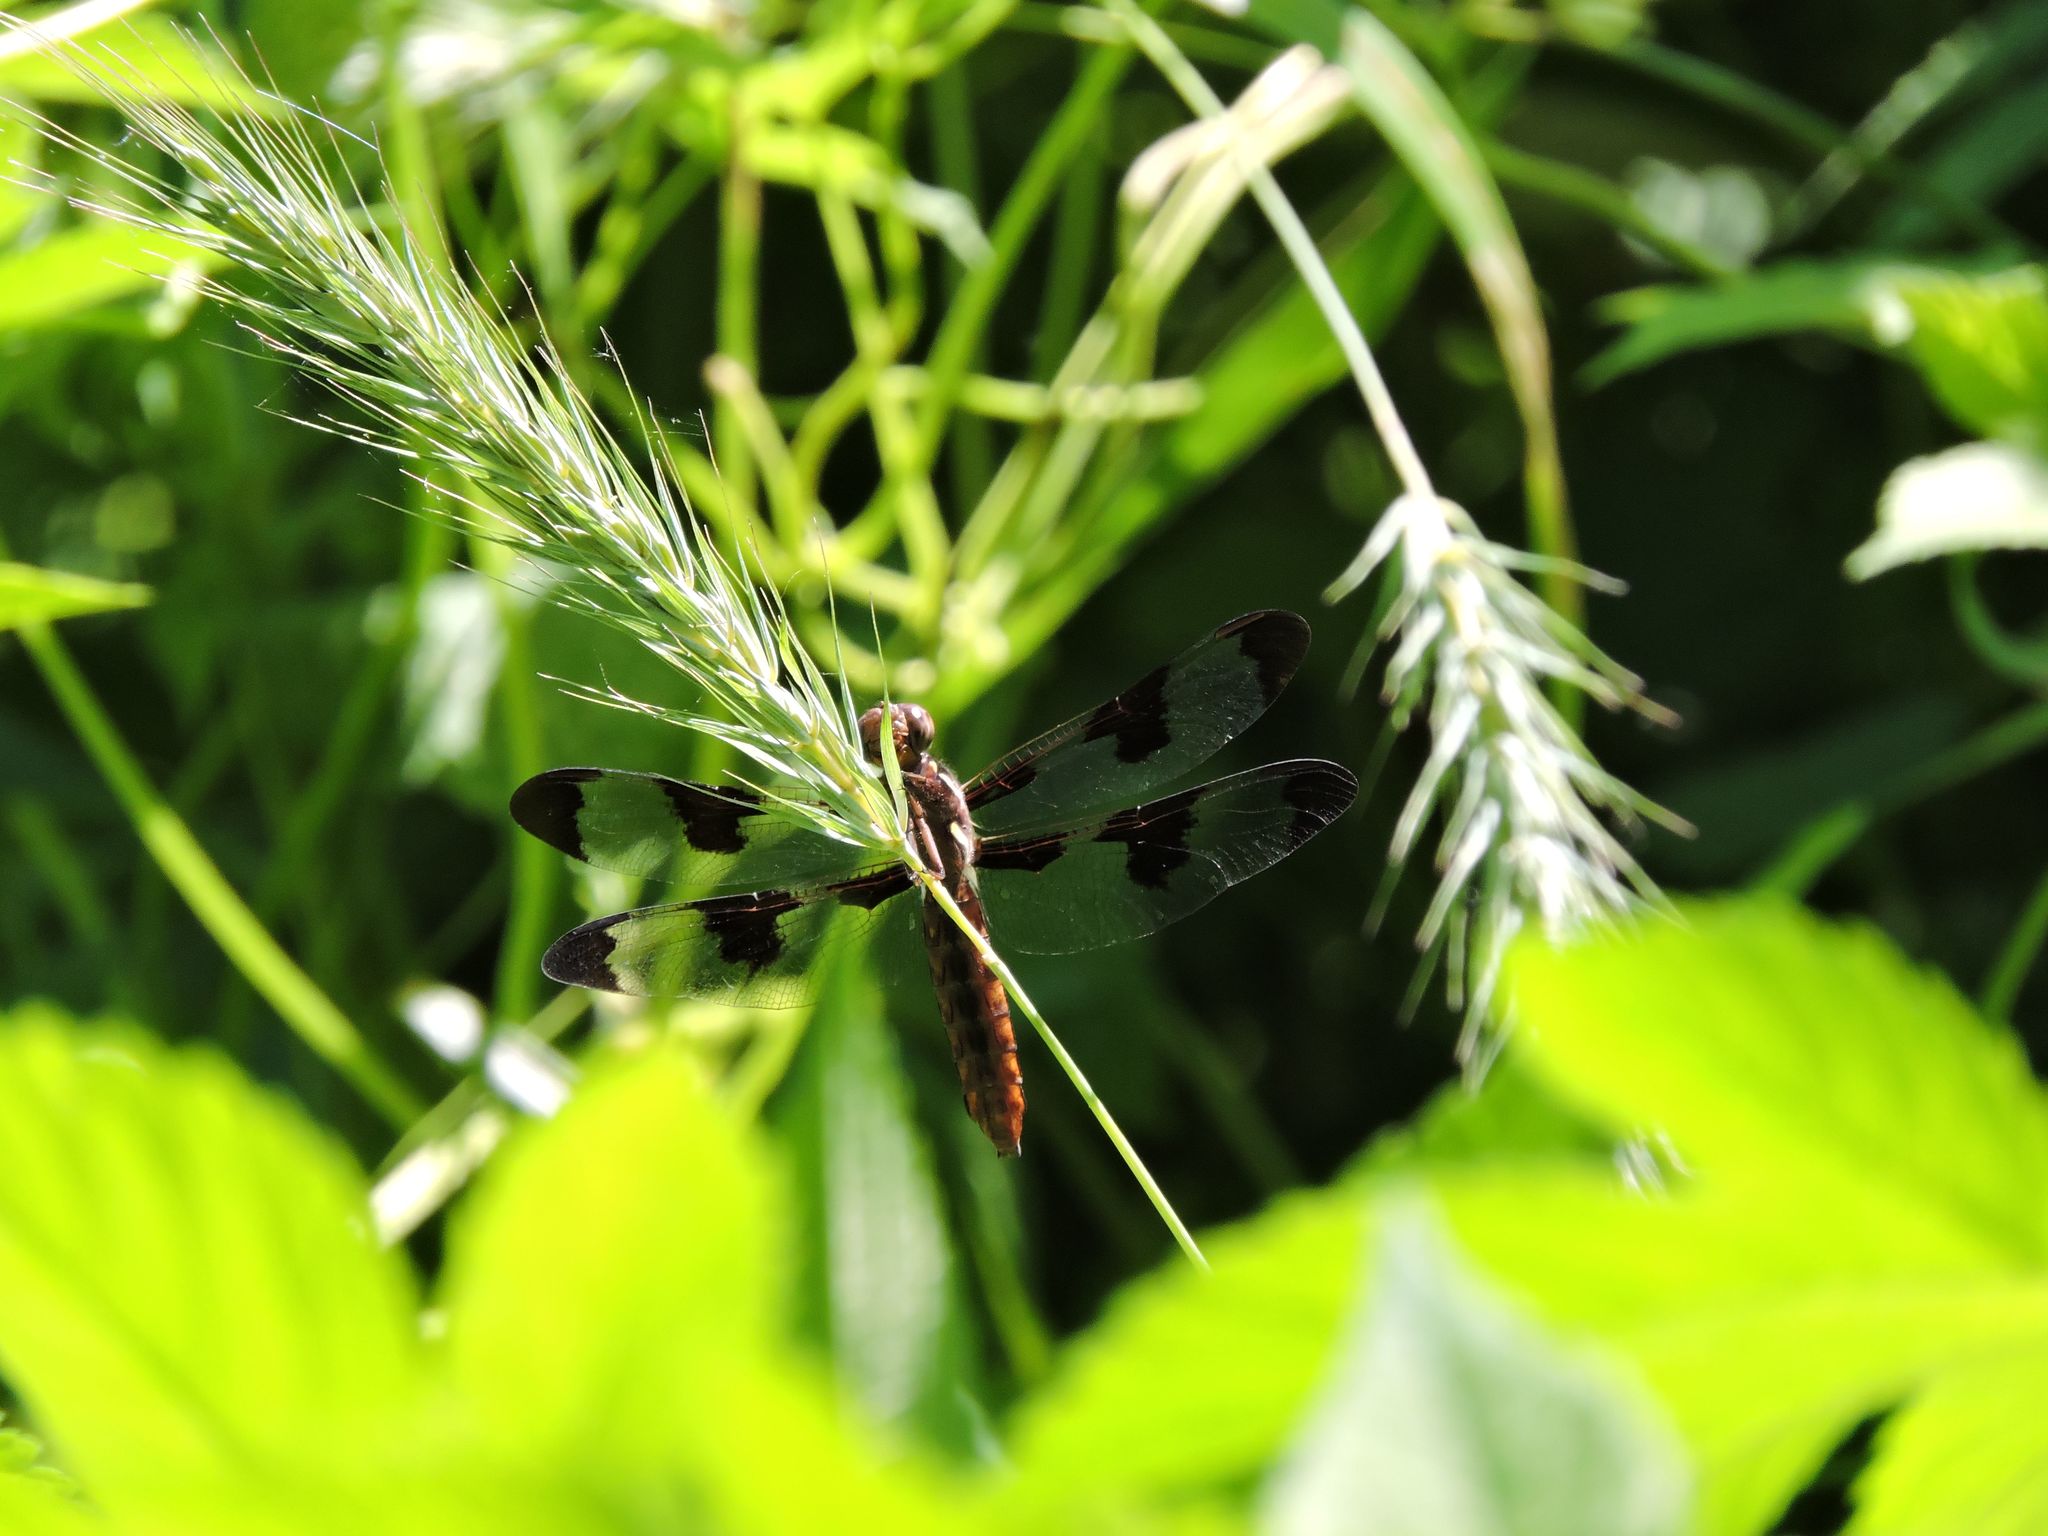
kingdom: Animalia
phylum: Arthropoda
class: Insecta
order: Odonata
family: Libellulidae
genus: Plathemis
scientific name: Plathemis lydia
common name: Common whitetail
